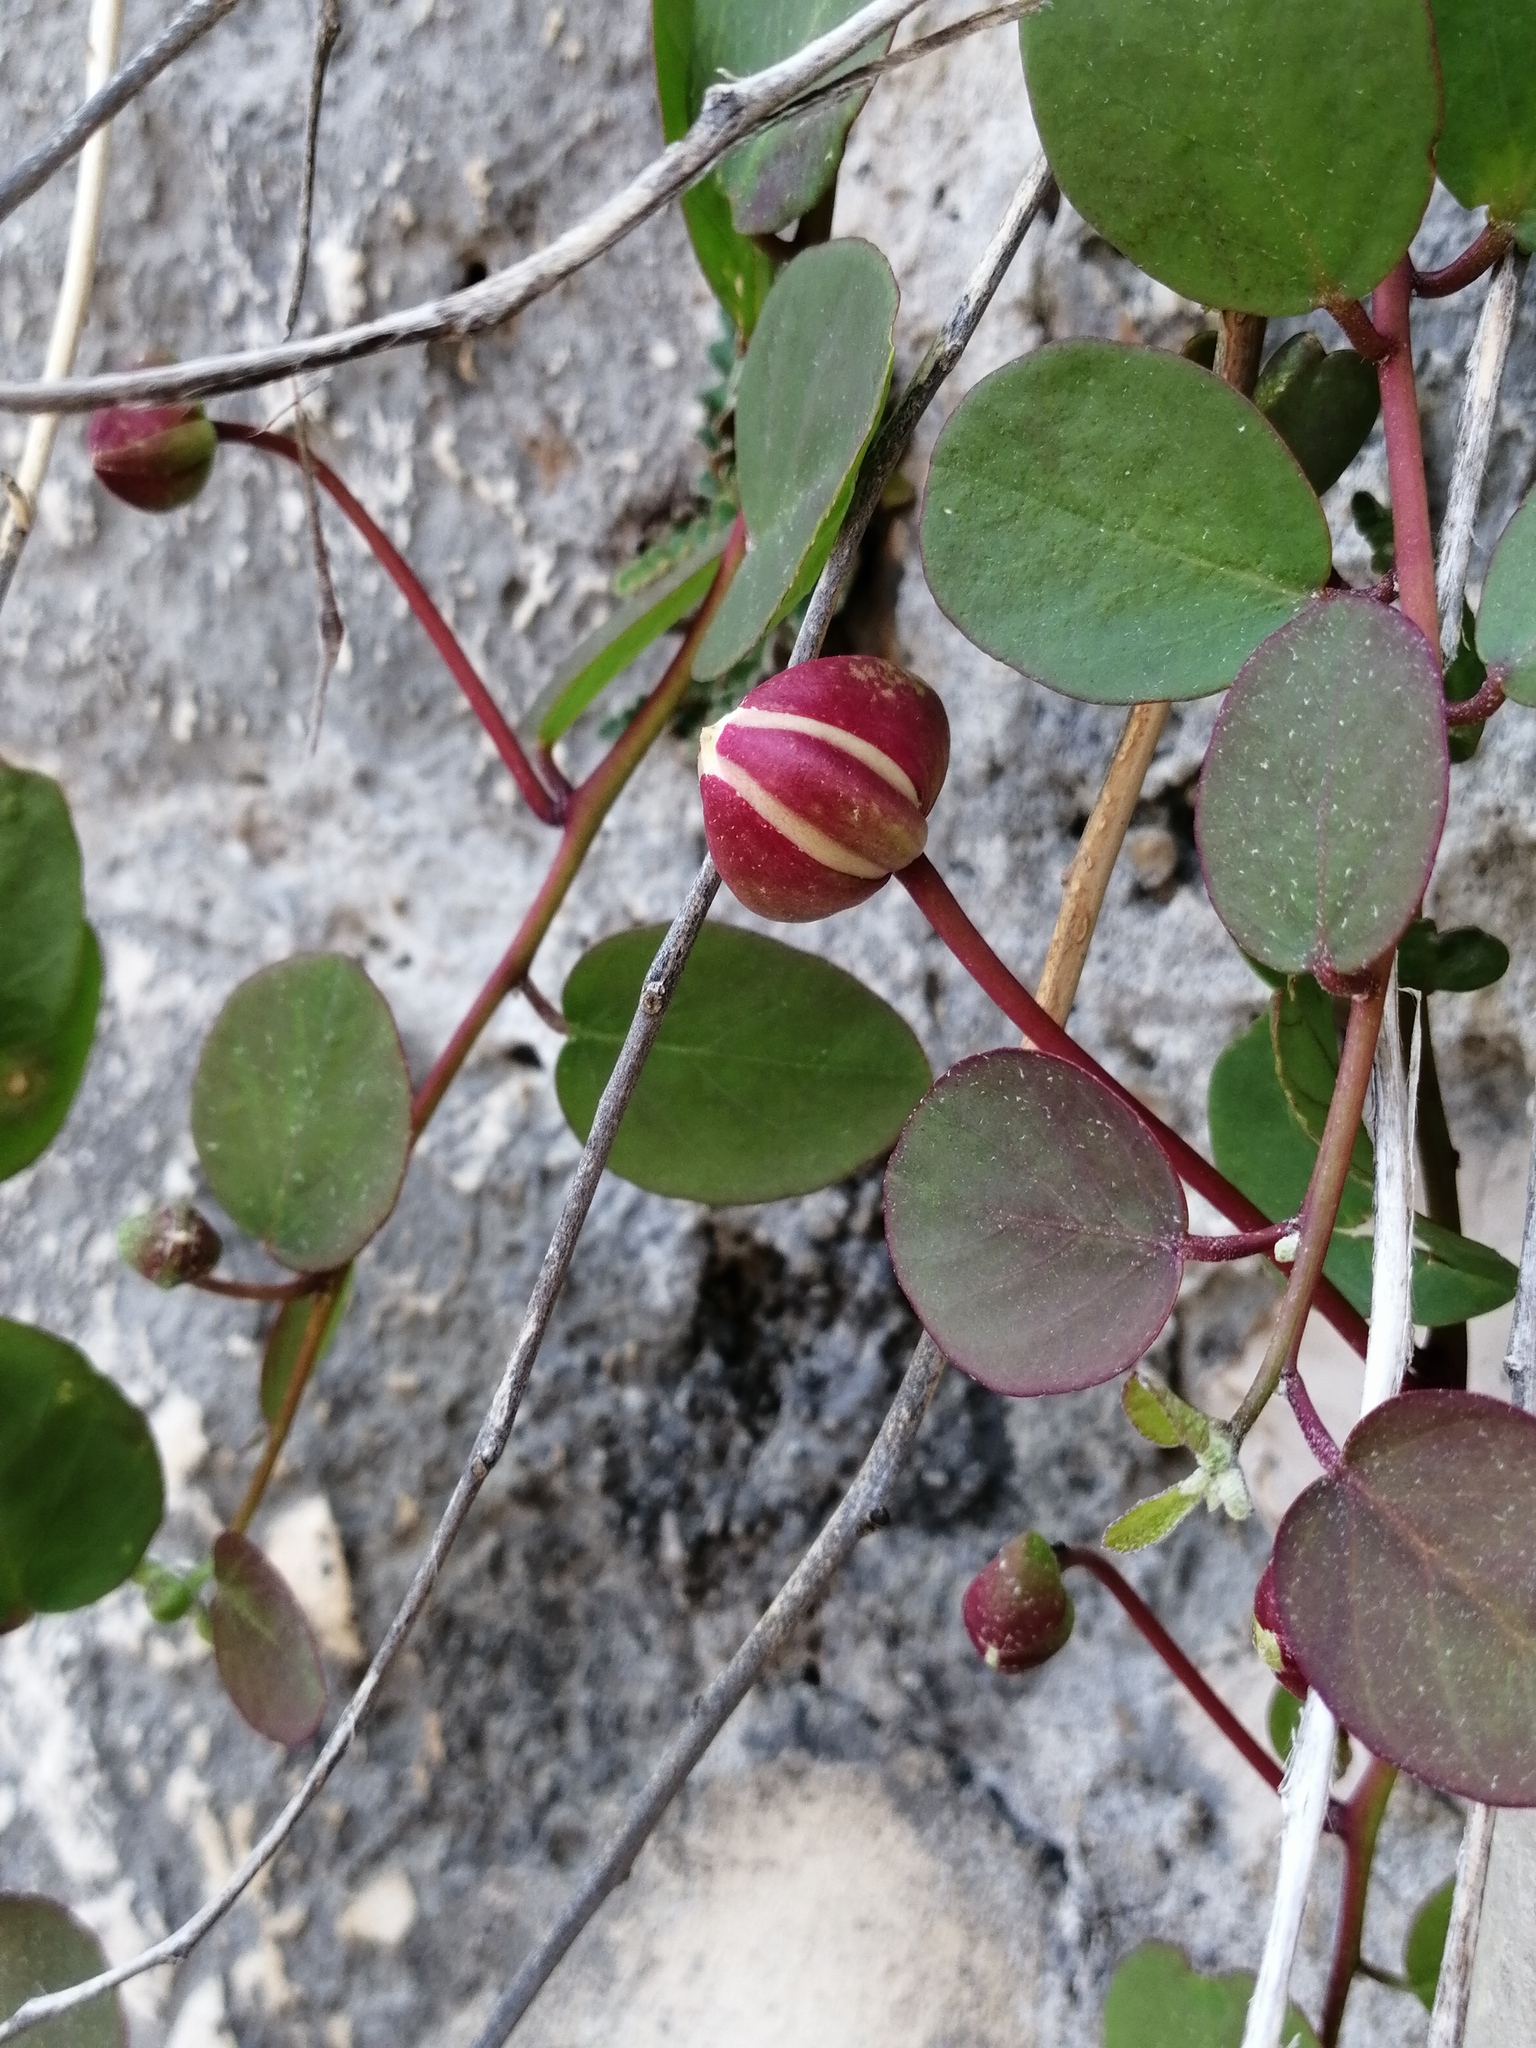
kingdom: Plantae
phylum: Tracheophyta
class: Magnoliopsida
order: Brassicales
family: Capparaceae
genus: Capparis
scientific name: Capparis orientalis
